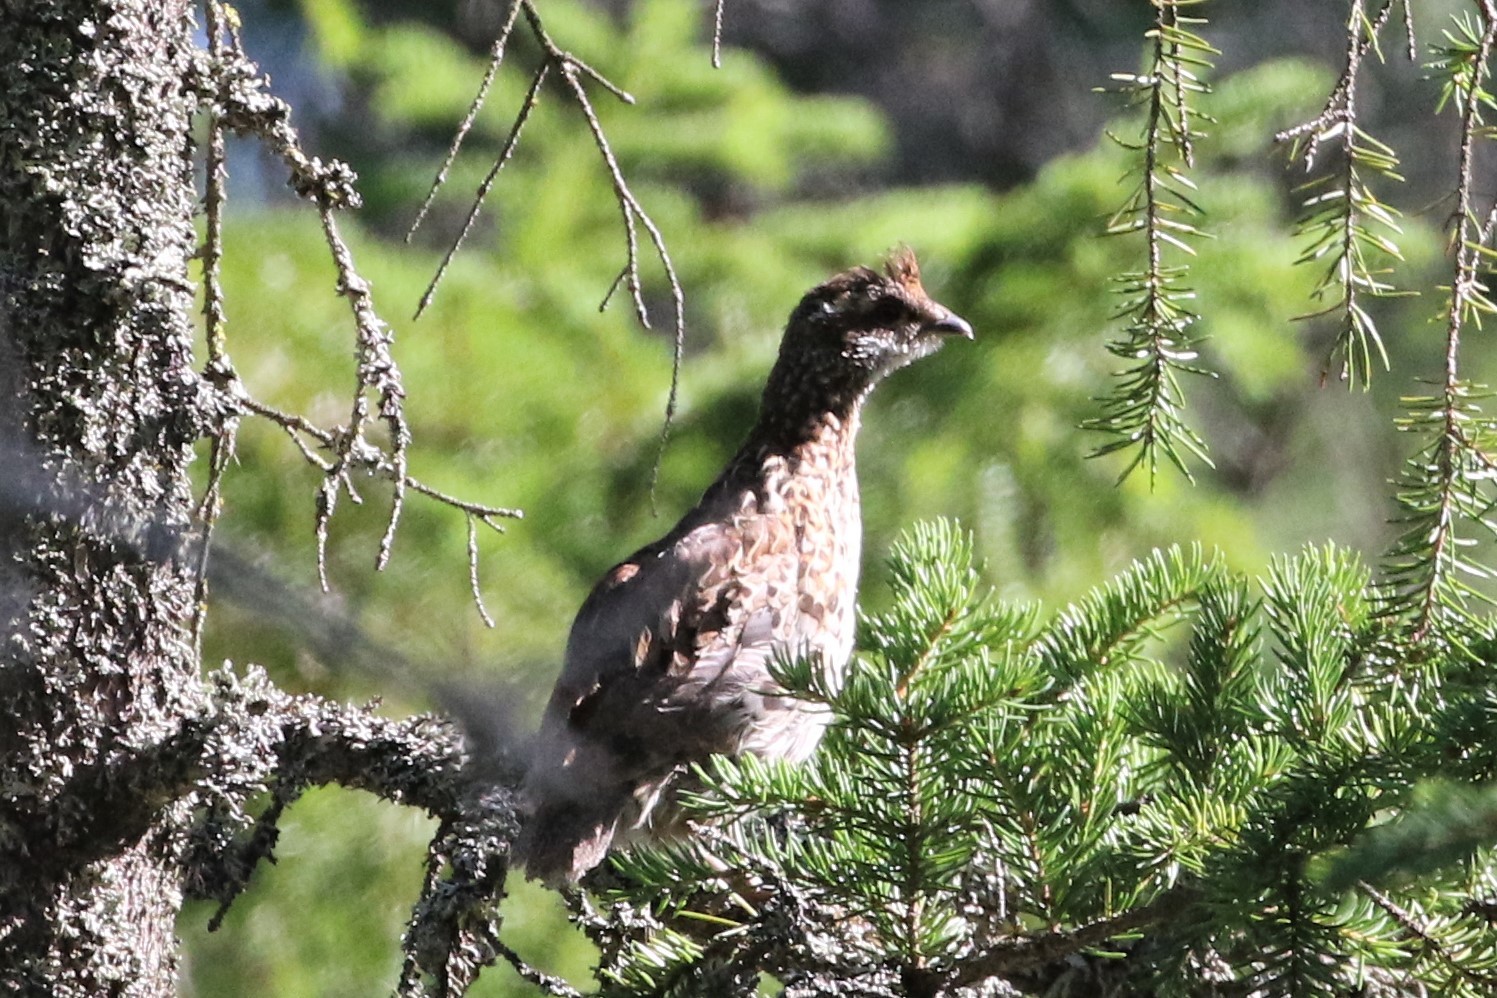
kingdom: Animalia
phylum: Chordata
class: Aves
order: Galliformes
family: Phasianidae
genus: Tetrastes
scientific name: Tetrastes bonasia
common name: Hazel grouse
